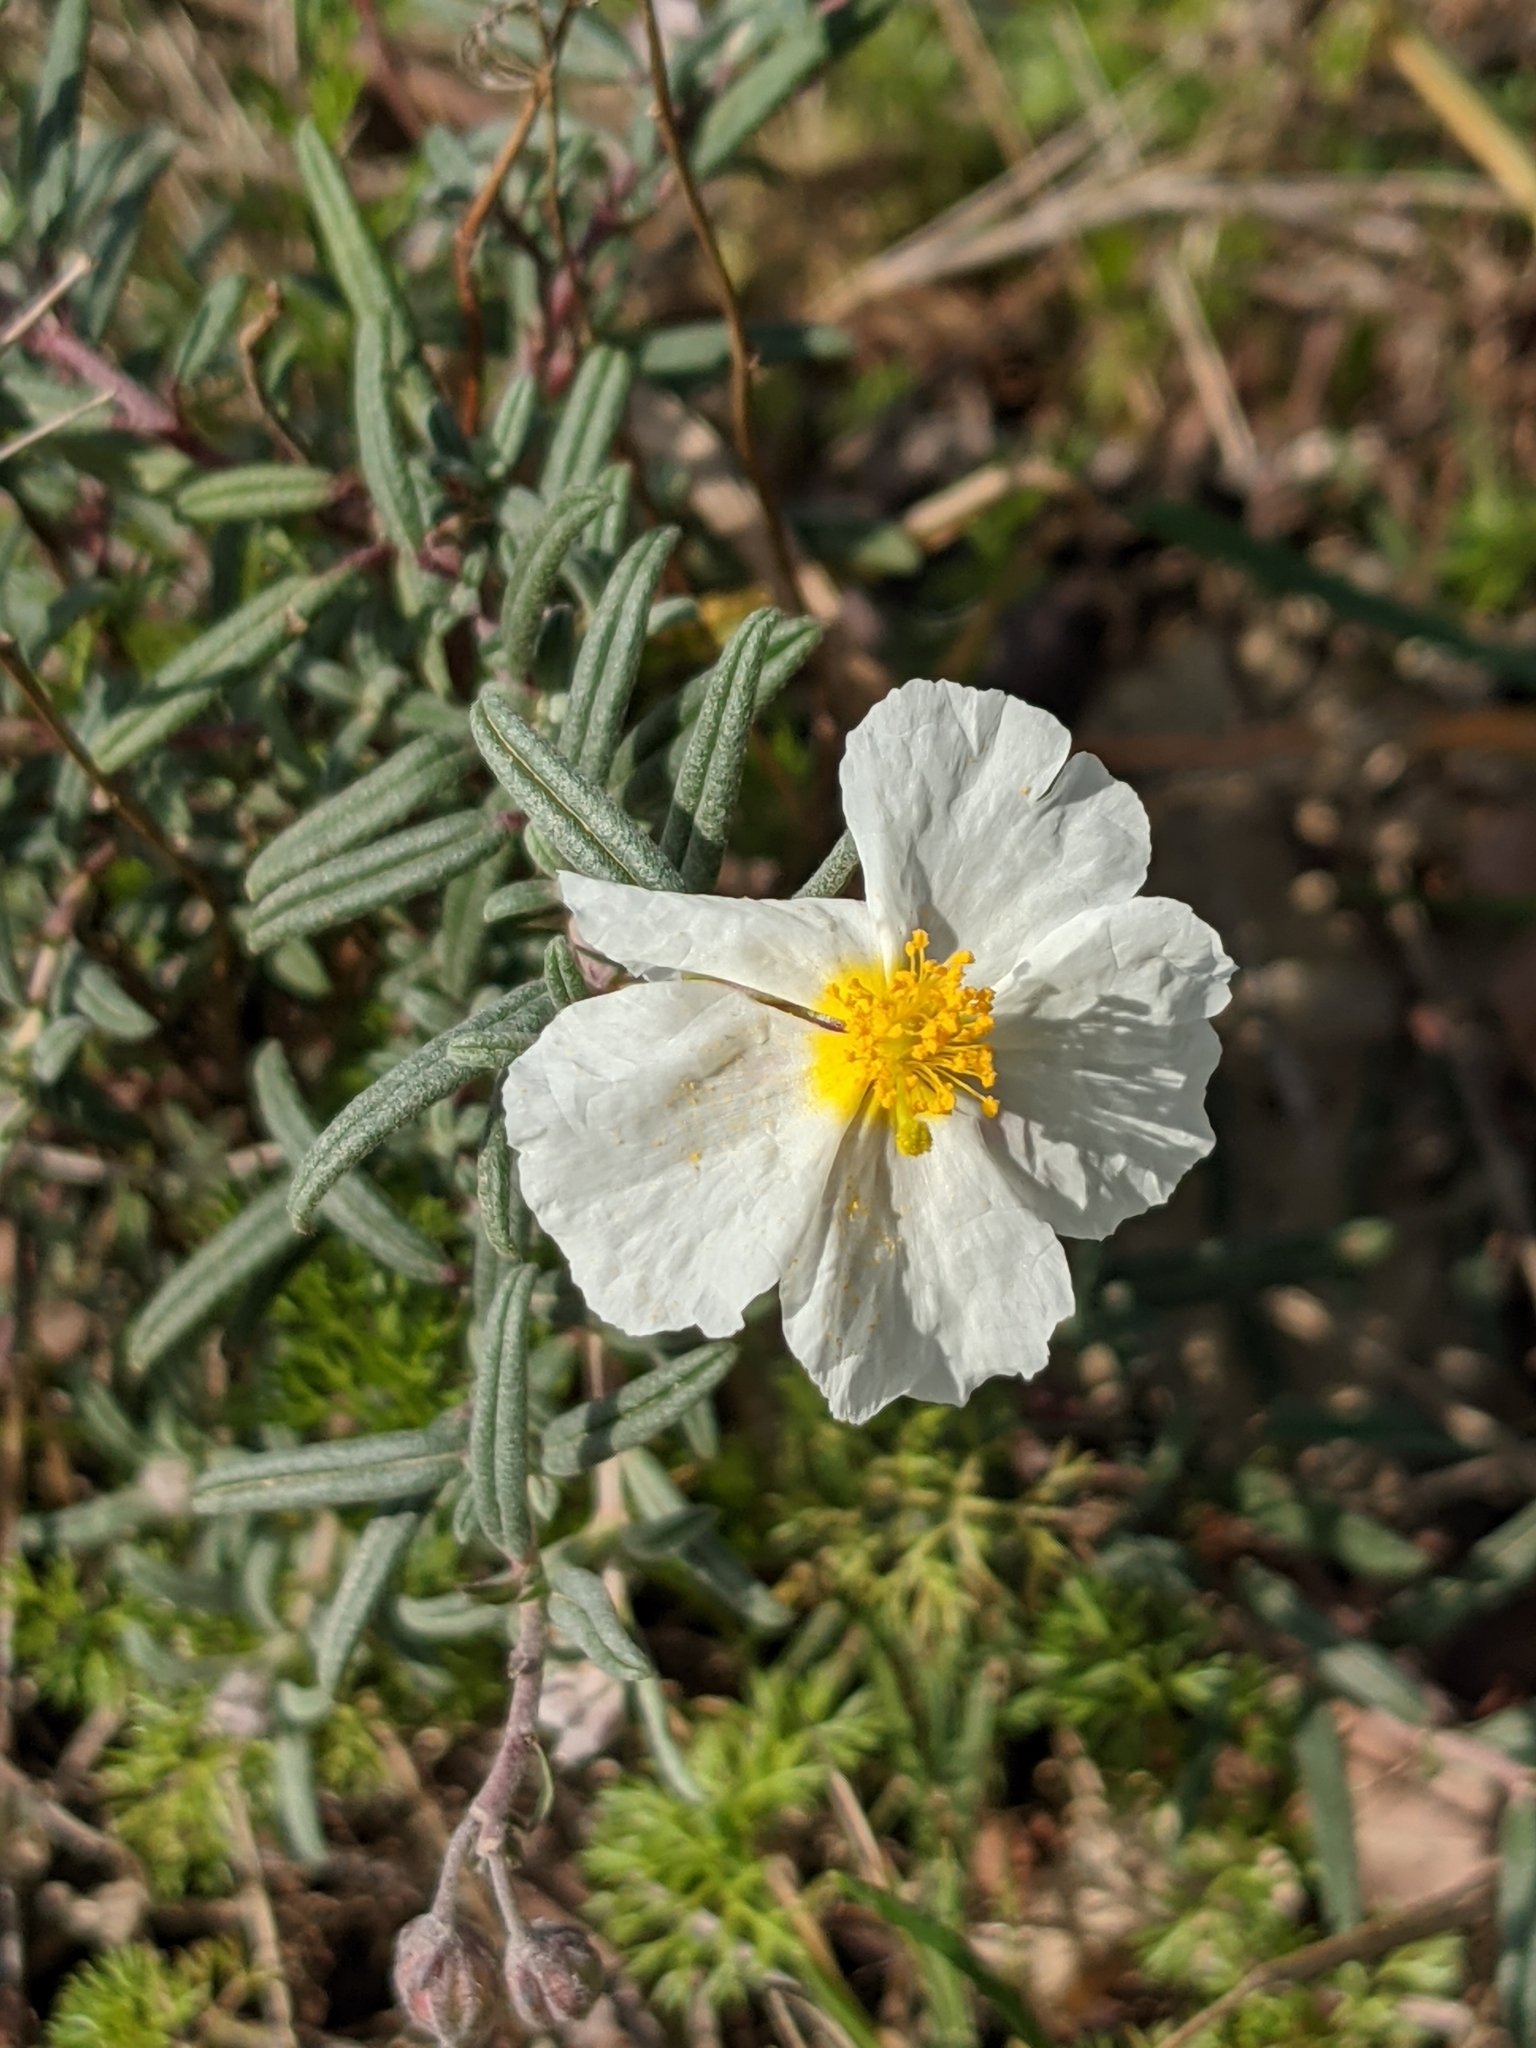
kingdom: Plantae
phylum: Tracheophyta
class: Magnoliopsida
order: Malvales
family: Cistaceae
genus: Helianthemum
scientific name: Helianthemum apenninum
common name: White rock-rose
